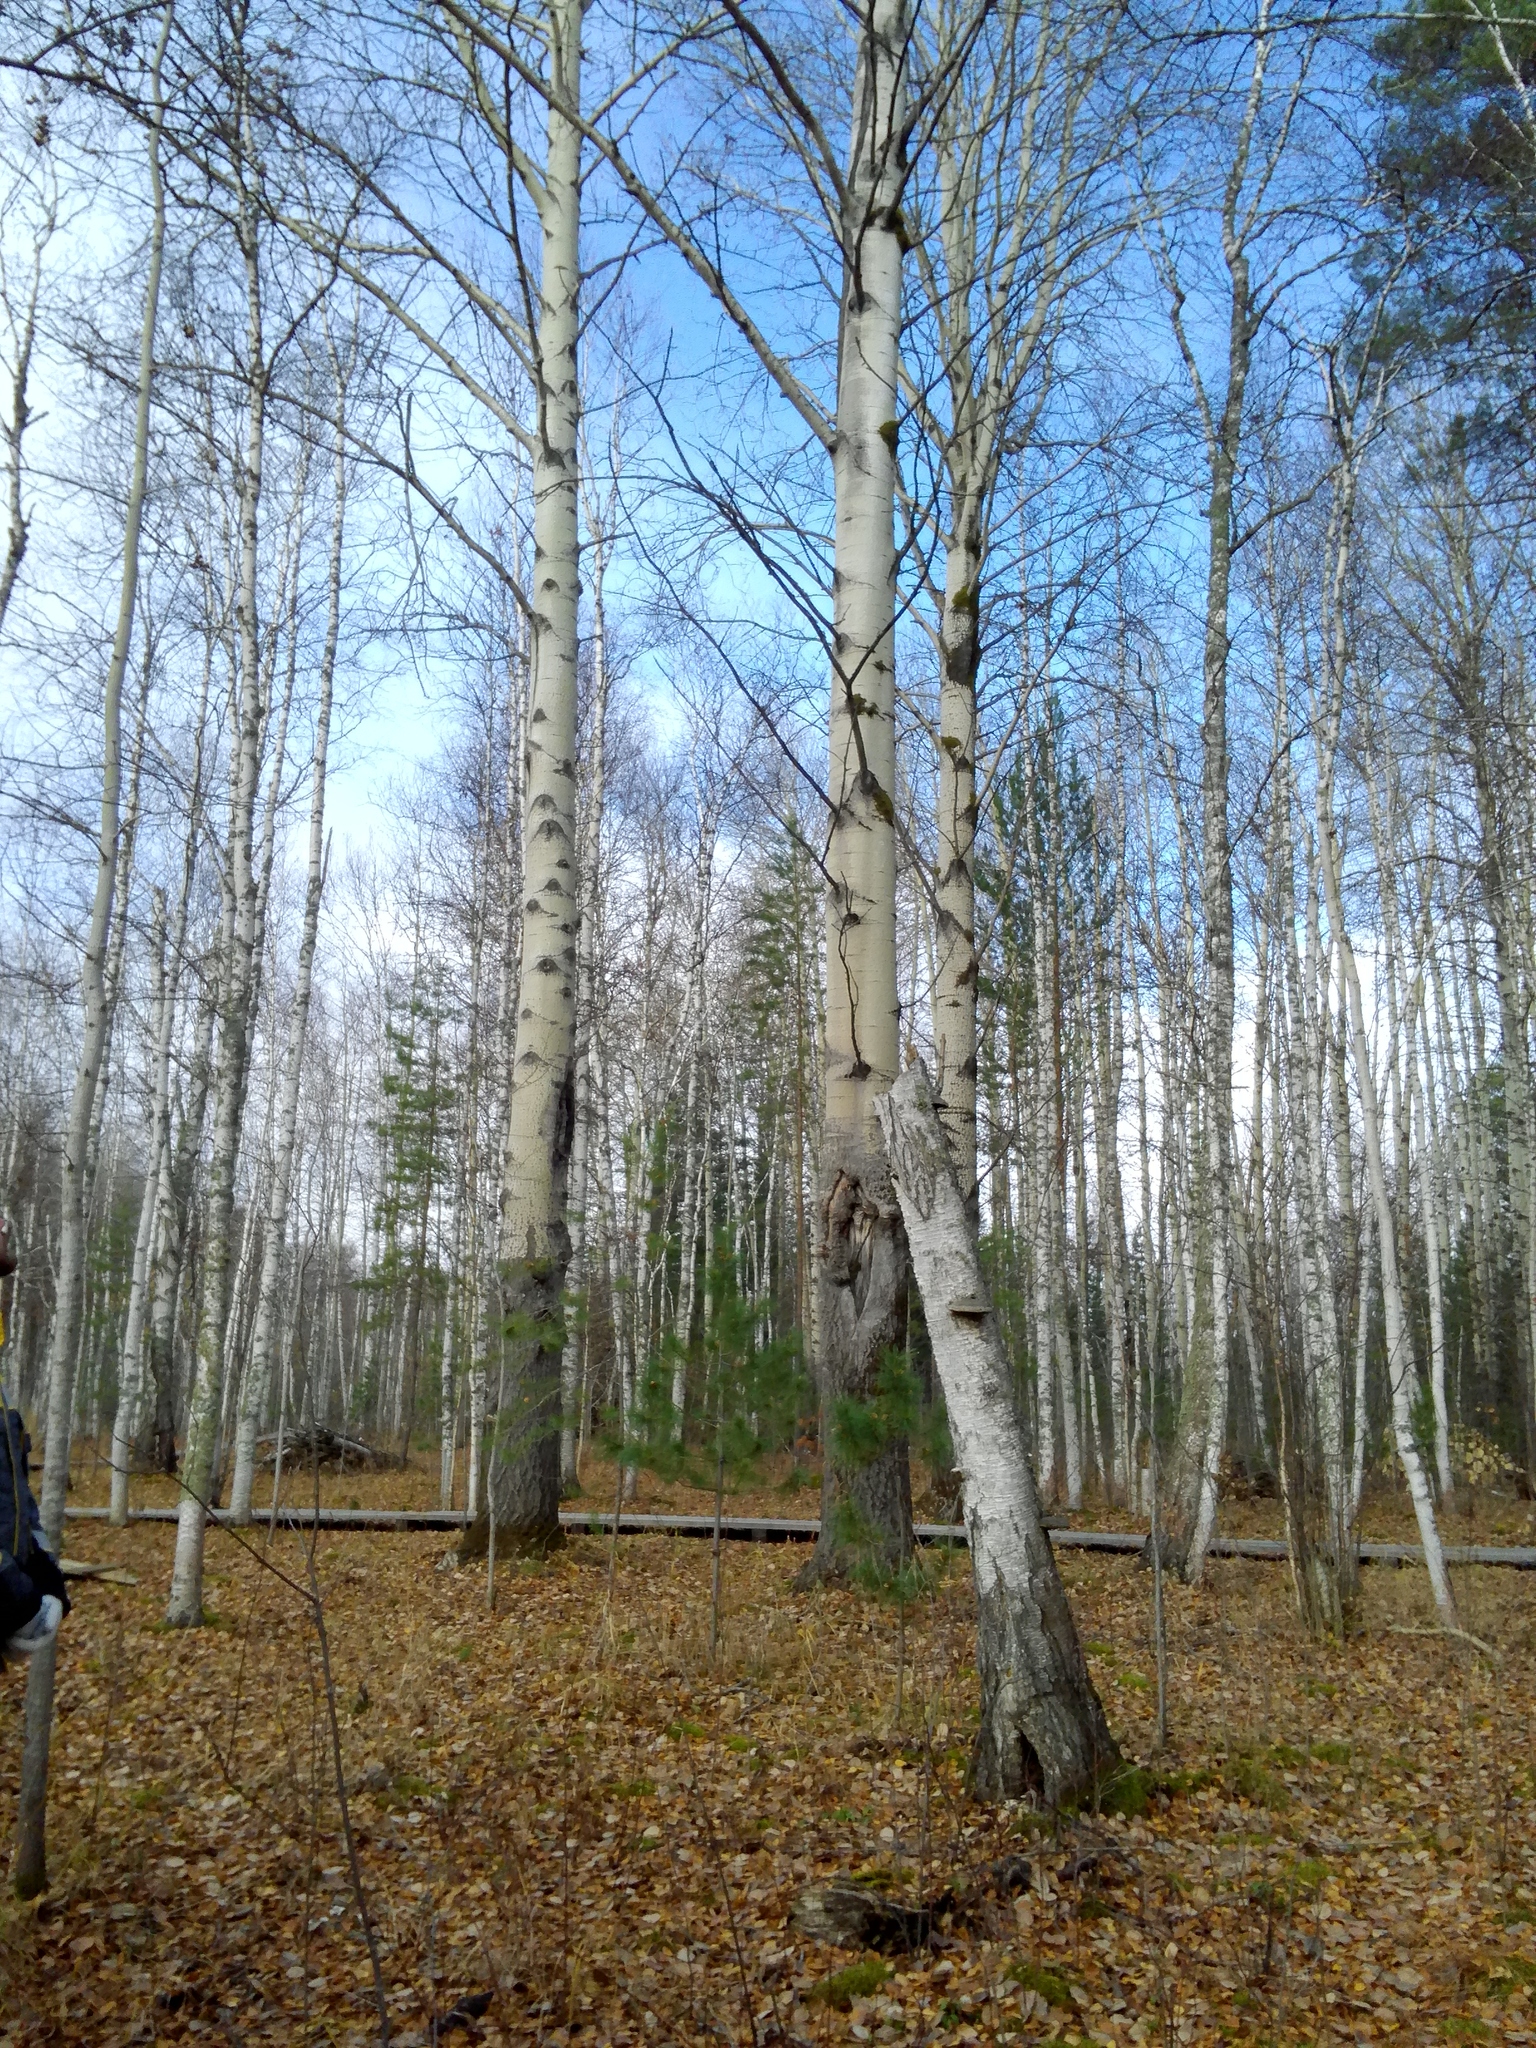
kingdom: Plantae
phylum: Tracheophyta
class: Magnoliopsida
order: Fagales
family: Betulaceae
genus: Betula
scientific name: Betula pubescens
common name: Downy birch
